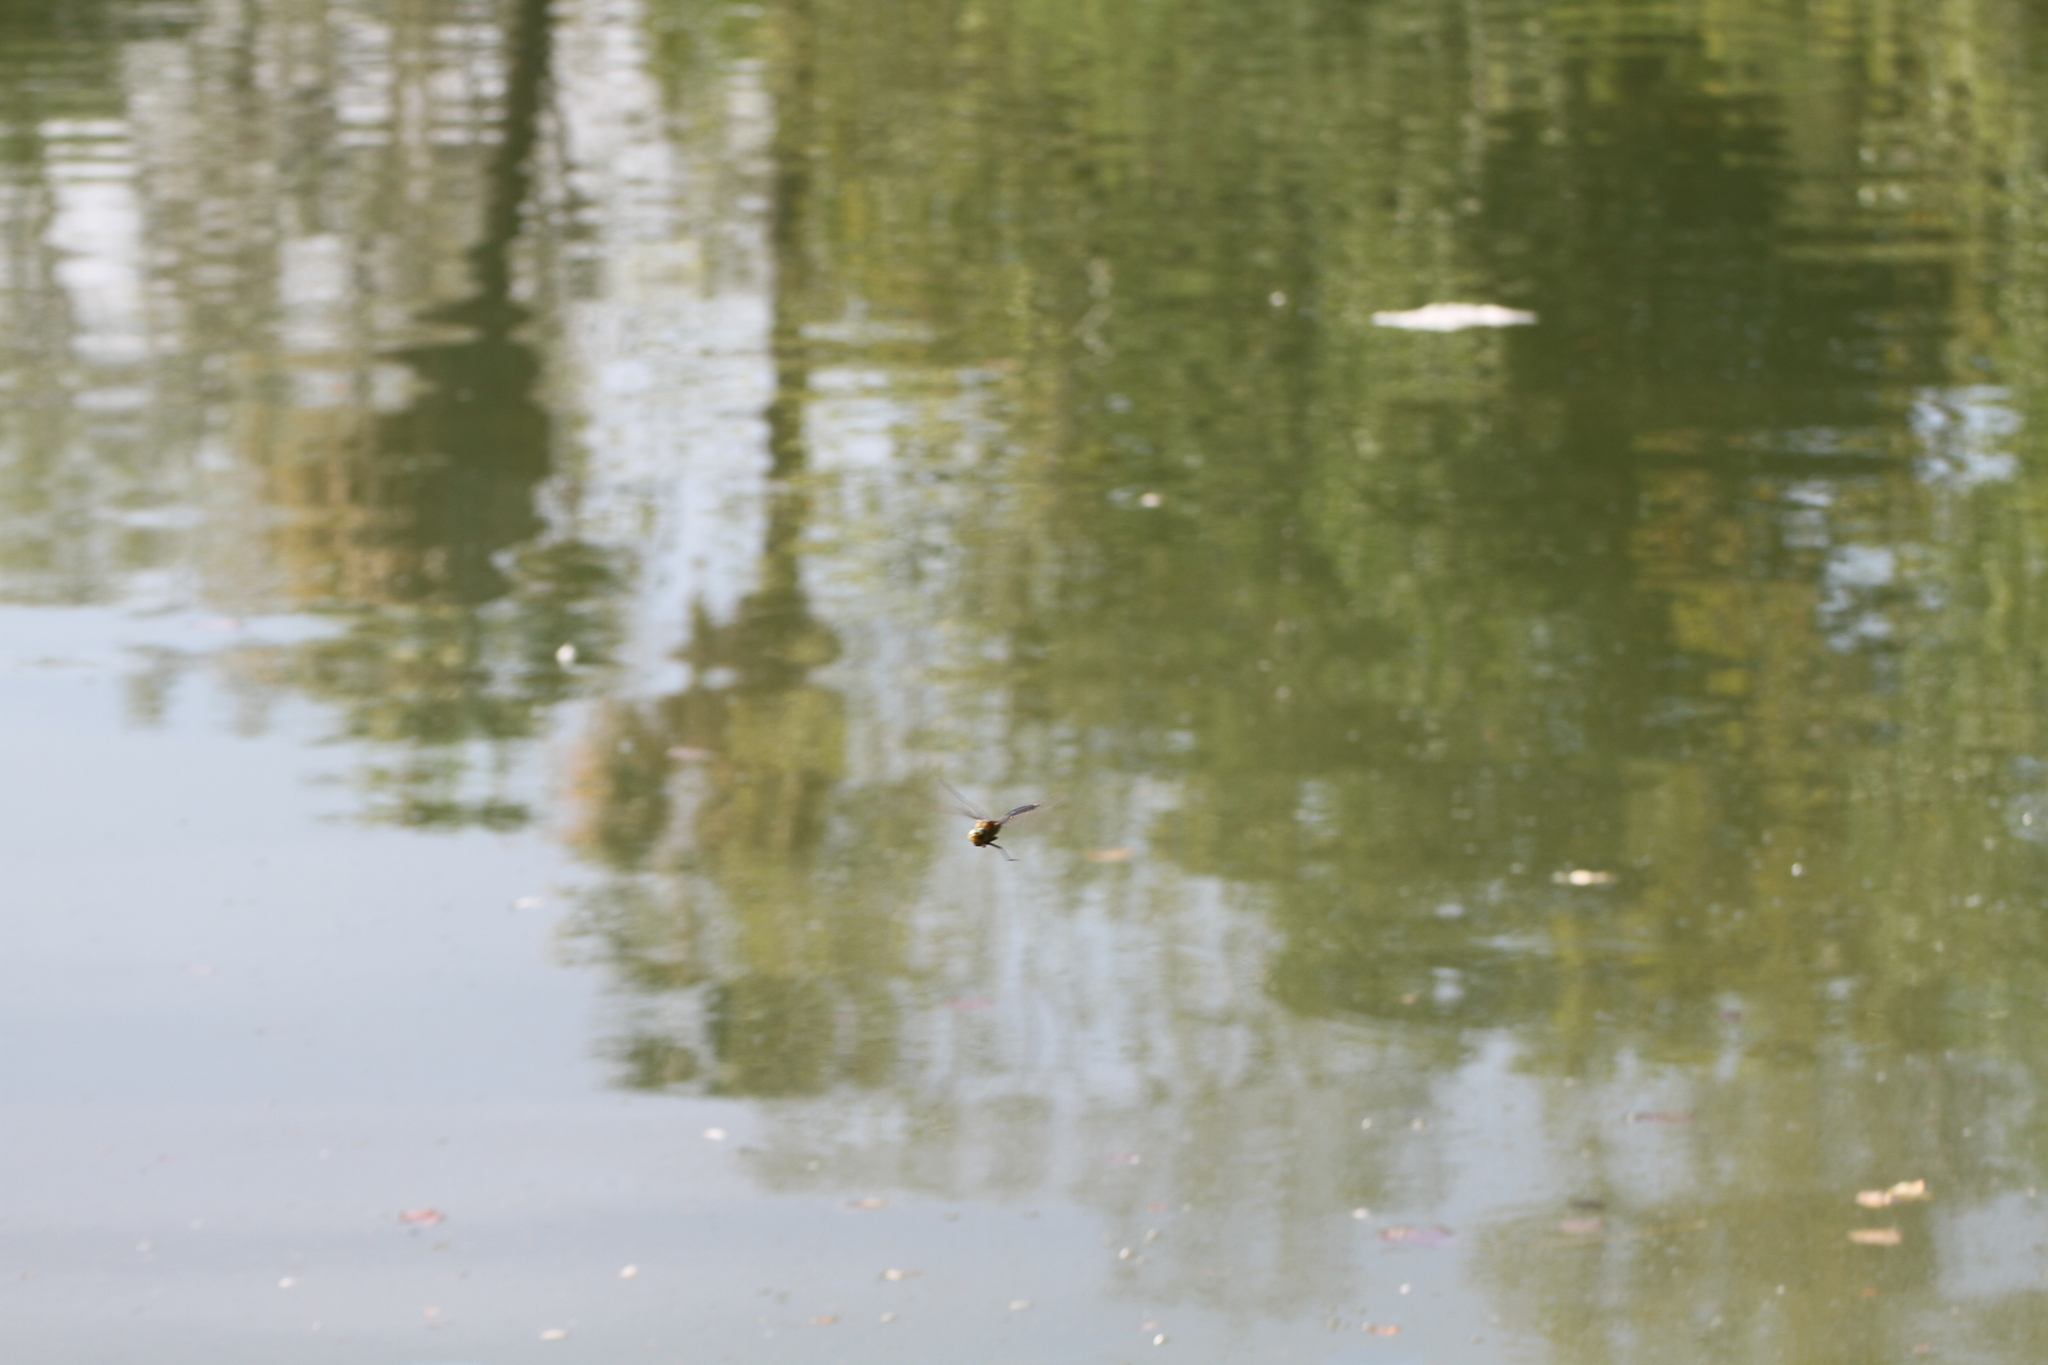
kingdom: Animalia
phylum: Arthropoda
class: Insecta
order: Odonata
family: Aeshnidae
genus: Anax
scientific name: Anax parthenope
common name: Lesser emperor
